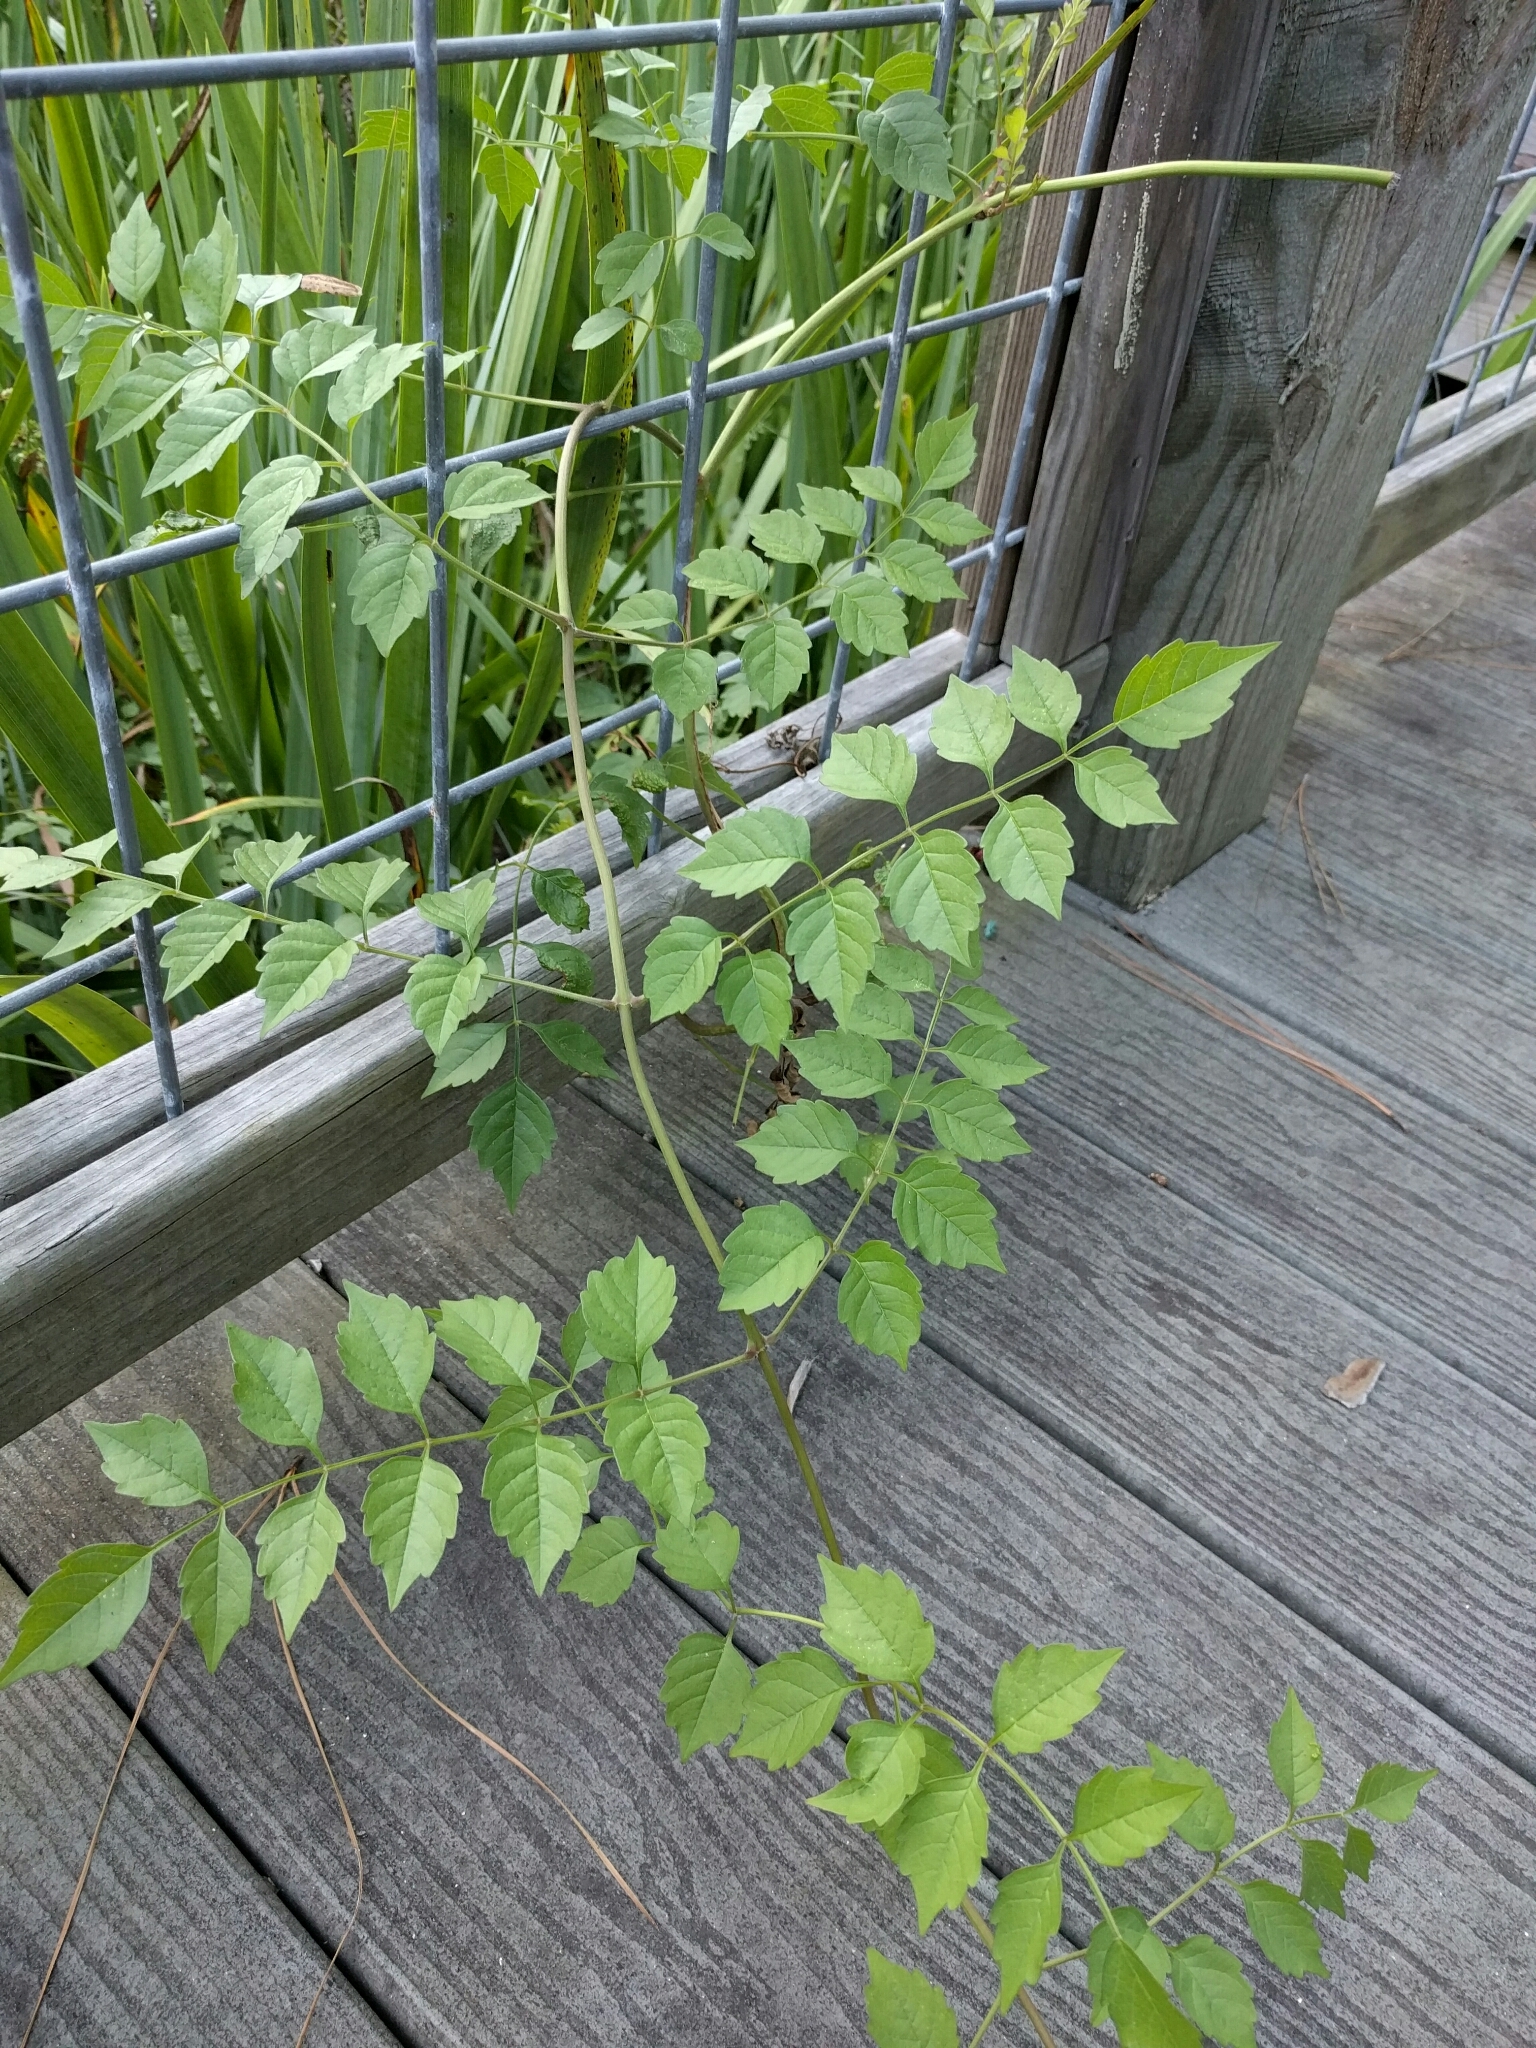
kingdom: Plantae
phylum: Tracheophyta
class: Magnoliopsida
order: Lamiales
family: Bignoniaceae
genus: Campsis
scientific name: Campsis radicans
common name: Trumpet-creeper
